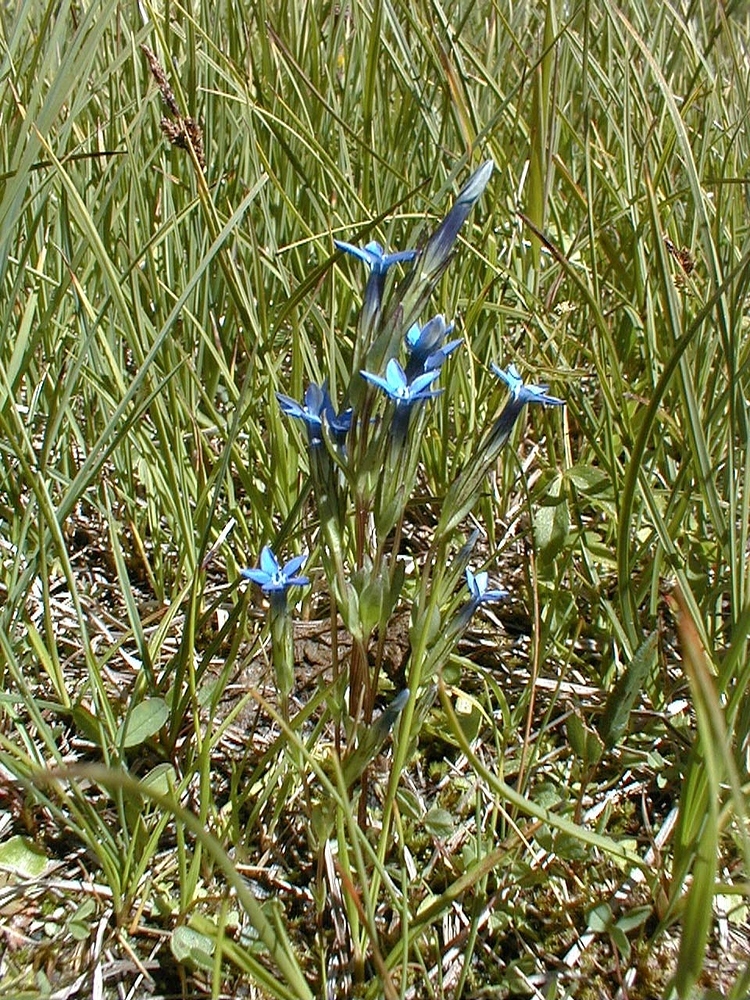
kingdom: Plantae
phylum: Tracheophyta
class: Magnoliopsida
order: Gentianales
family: Gentianaceae
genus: Gentiana
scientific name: Gentiana nivalis
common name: Alpine gentian
